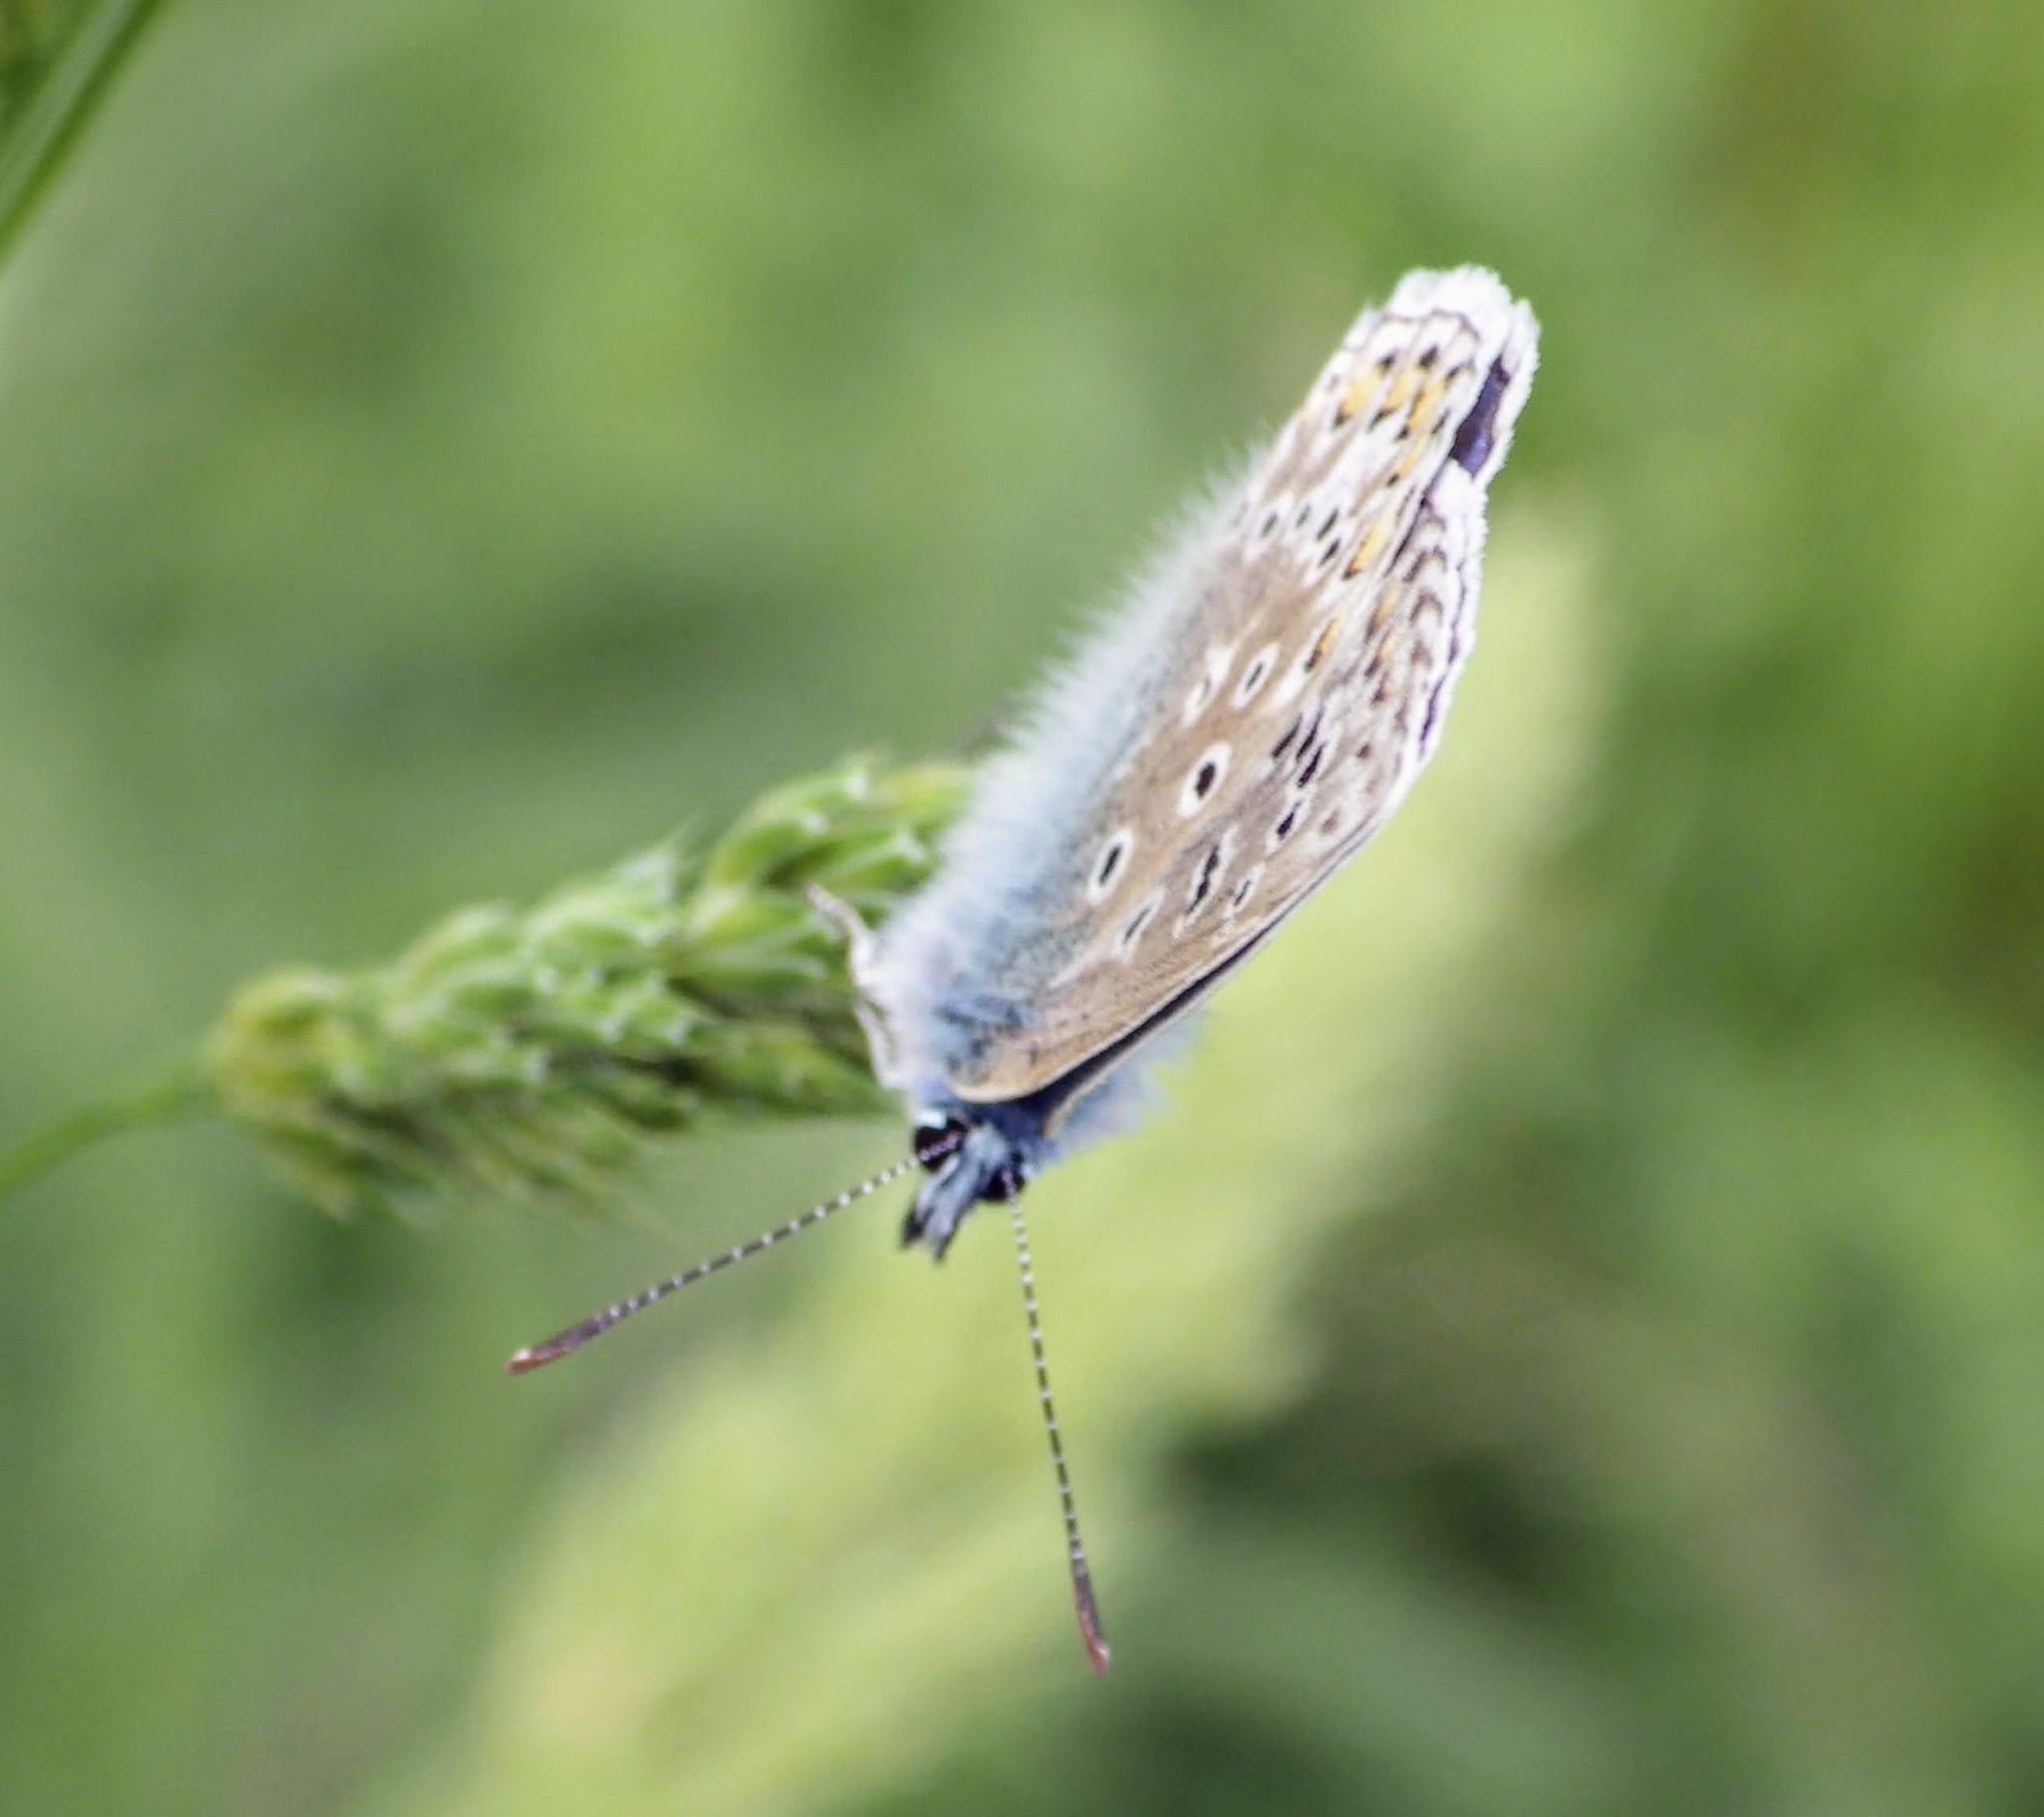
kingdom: Animalia
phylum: Arthropoda
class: Insecta
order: Lepidoptera
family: Lycaenidae
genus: Polyommatus
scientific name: Polyommatus icarus
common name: Common blue
